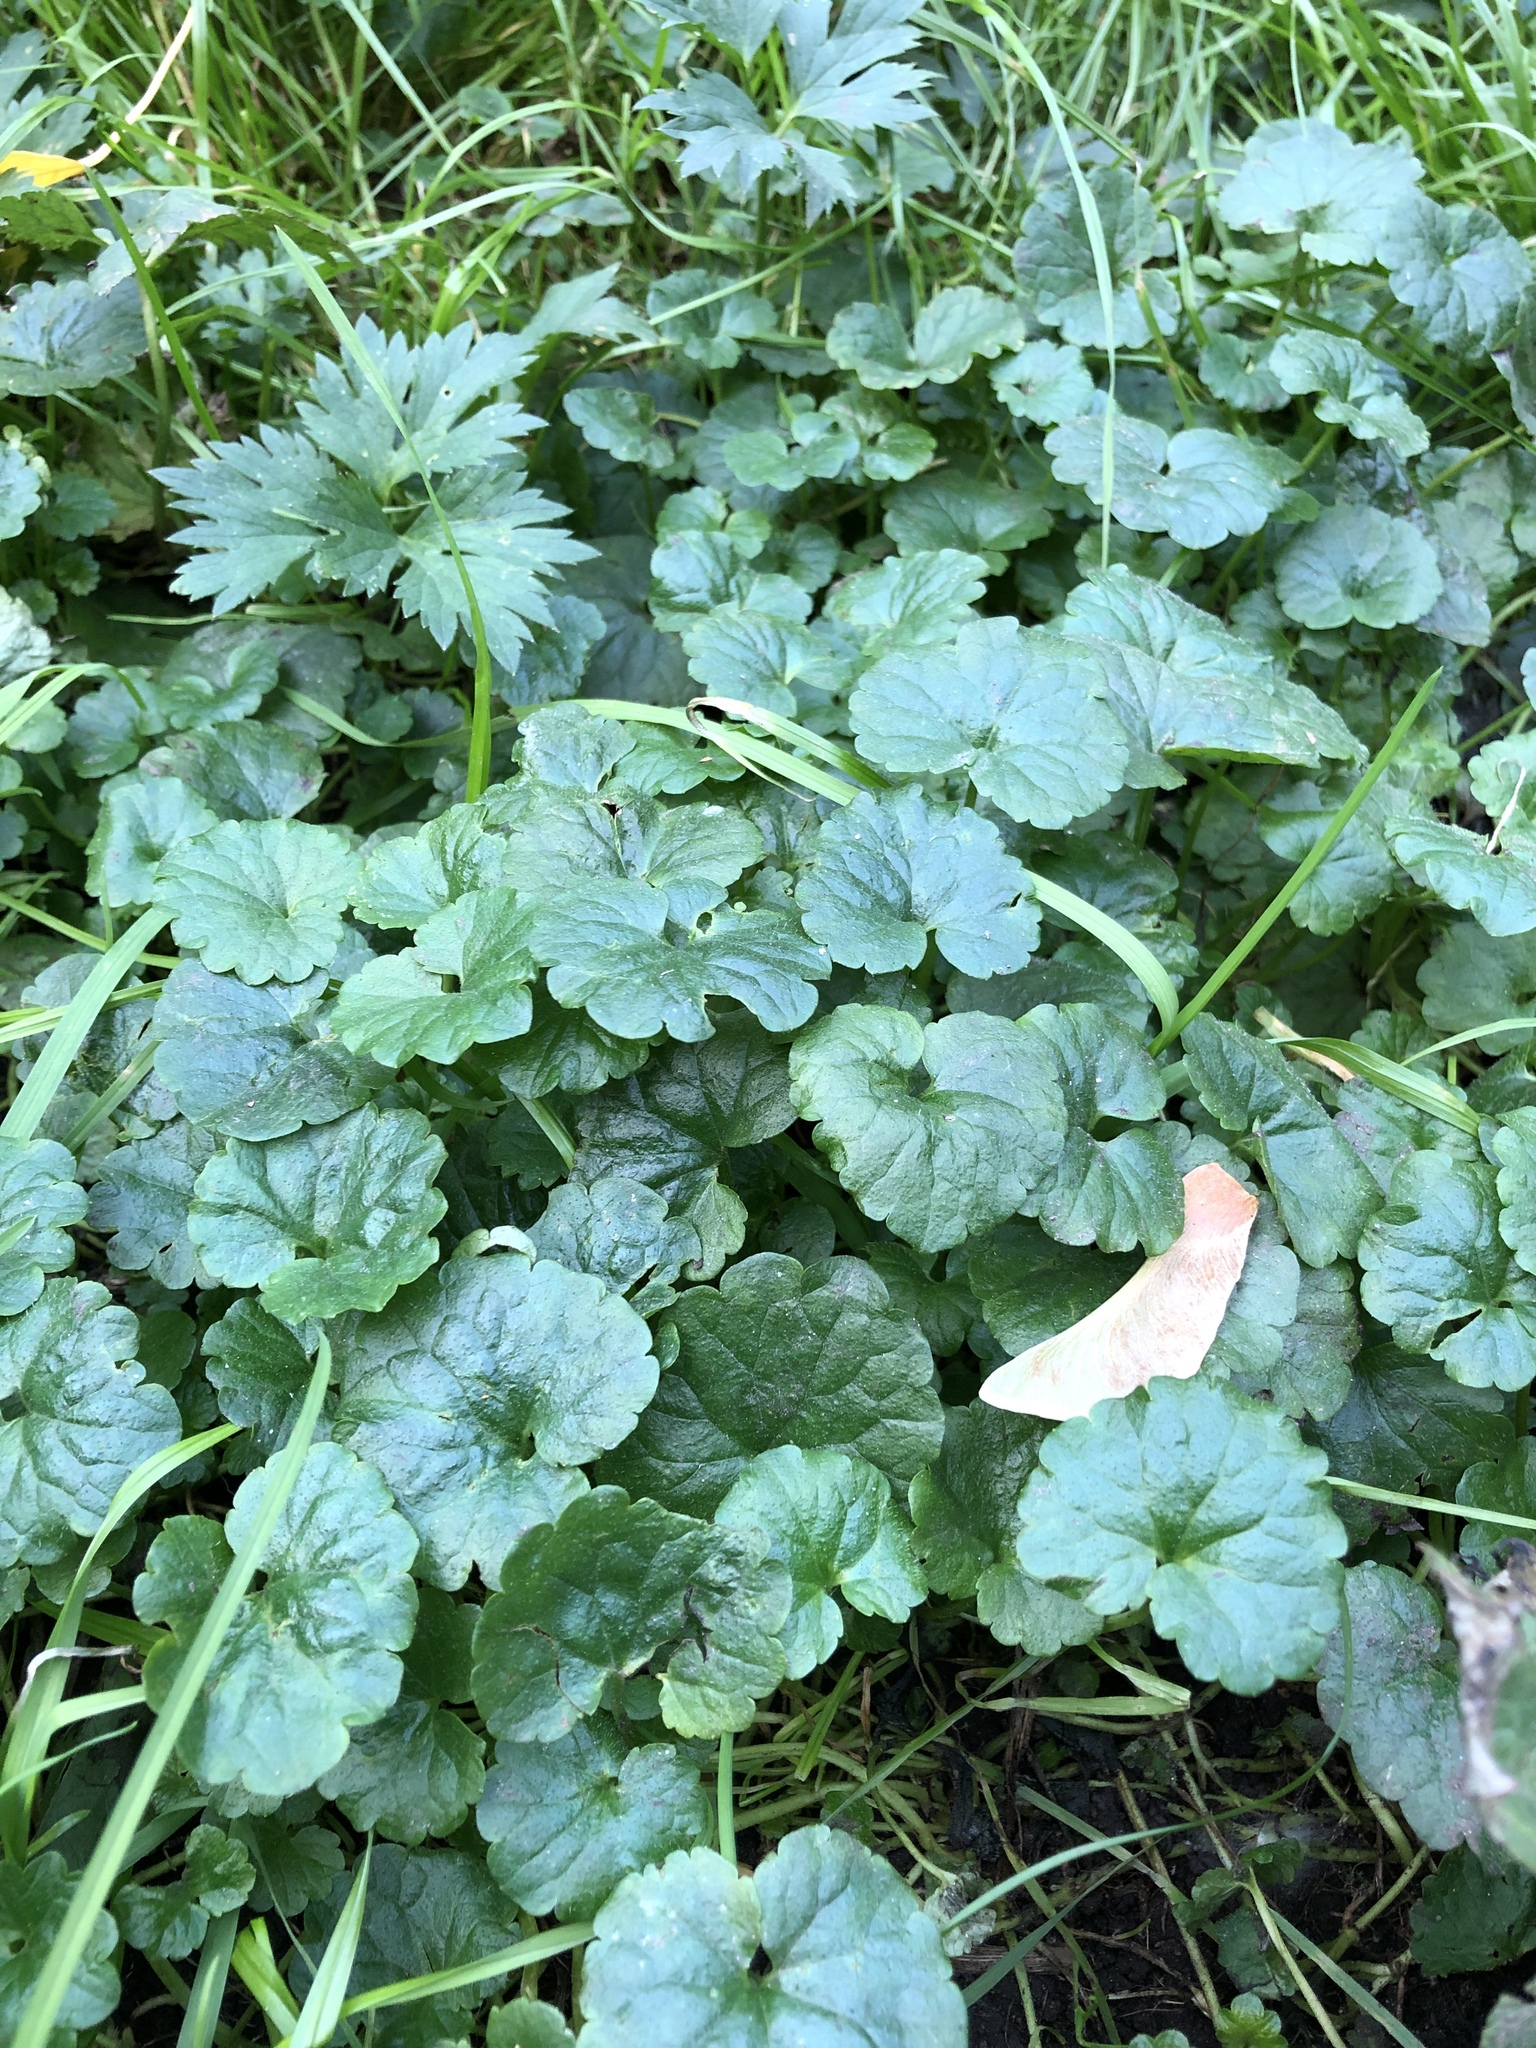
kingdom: Plantae
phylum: Tracheophyta
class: Magnoliopsida
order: Lamiales
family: Lamiaceae
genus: Glechoma
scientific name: Glechoma hederacea
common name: Ground ivy
